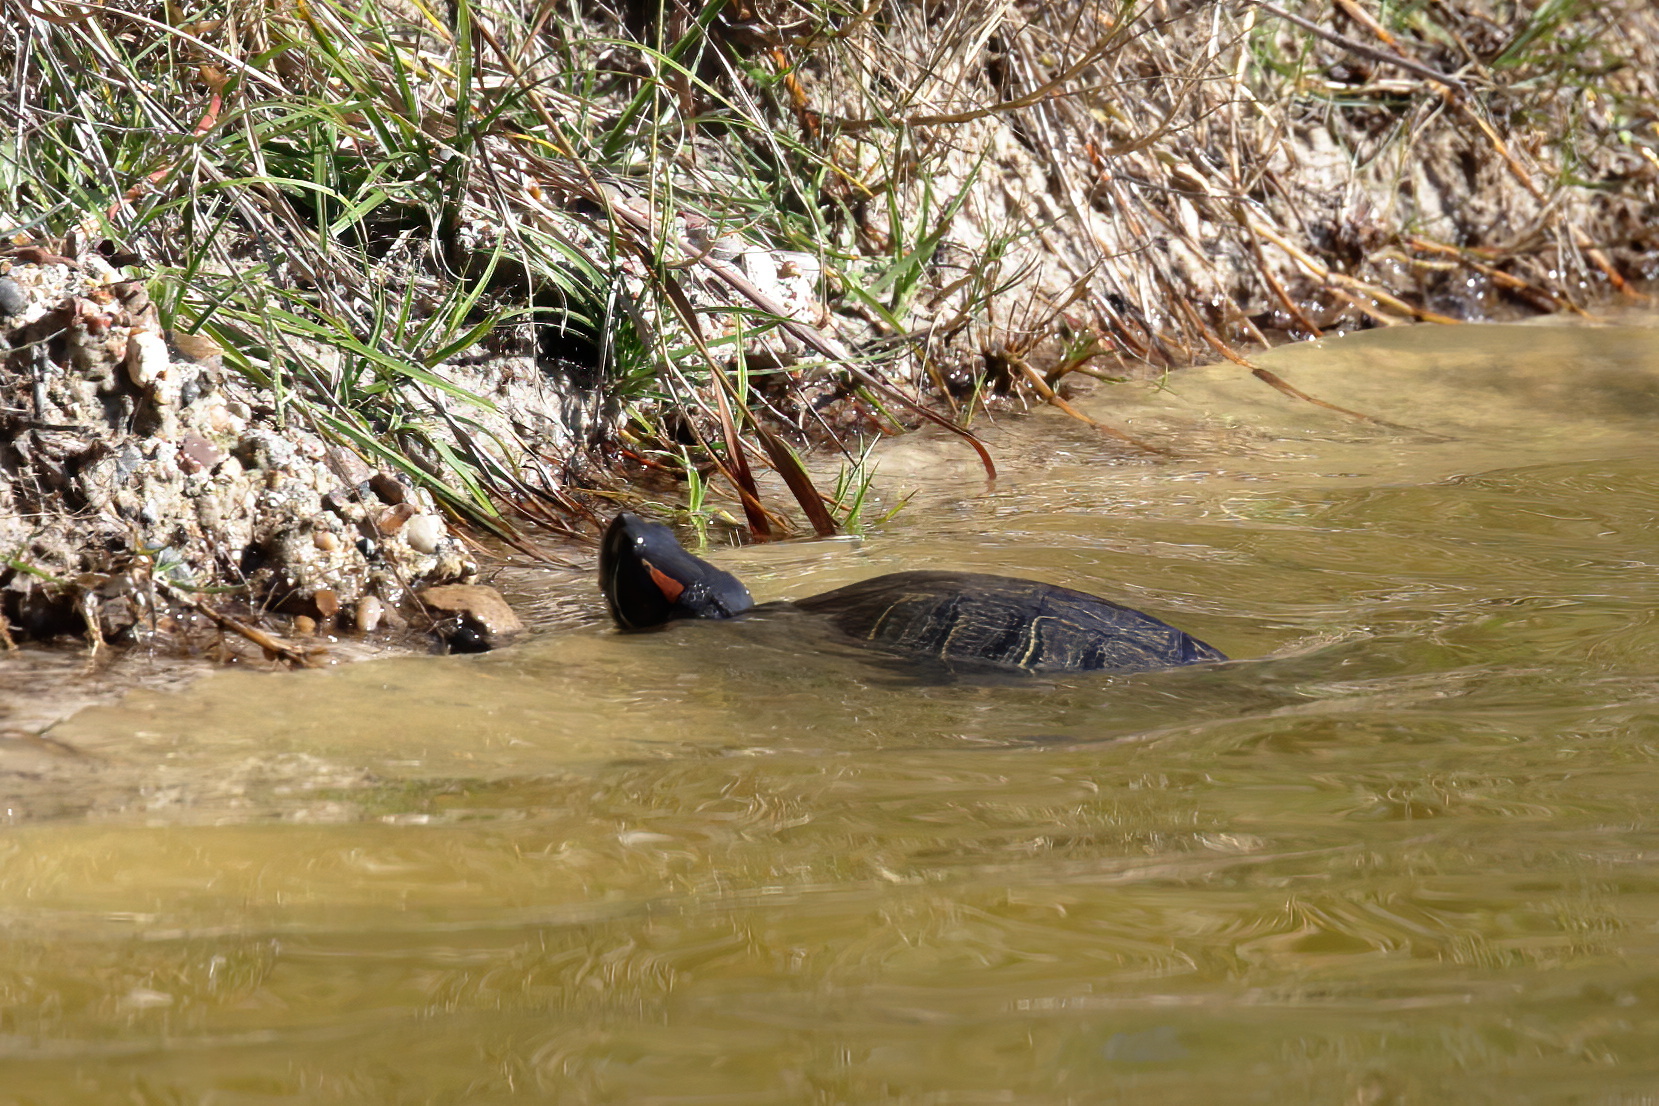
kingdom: Animalia
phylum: Chordata
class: Testudines
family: Emydidae
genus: Trachemys
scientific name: Trachemys scripta
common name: Slider
